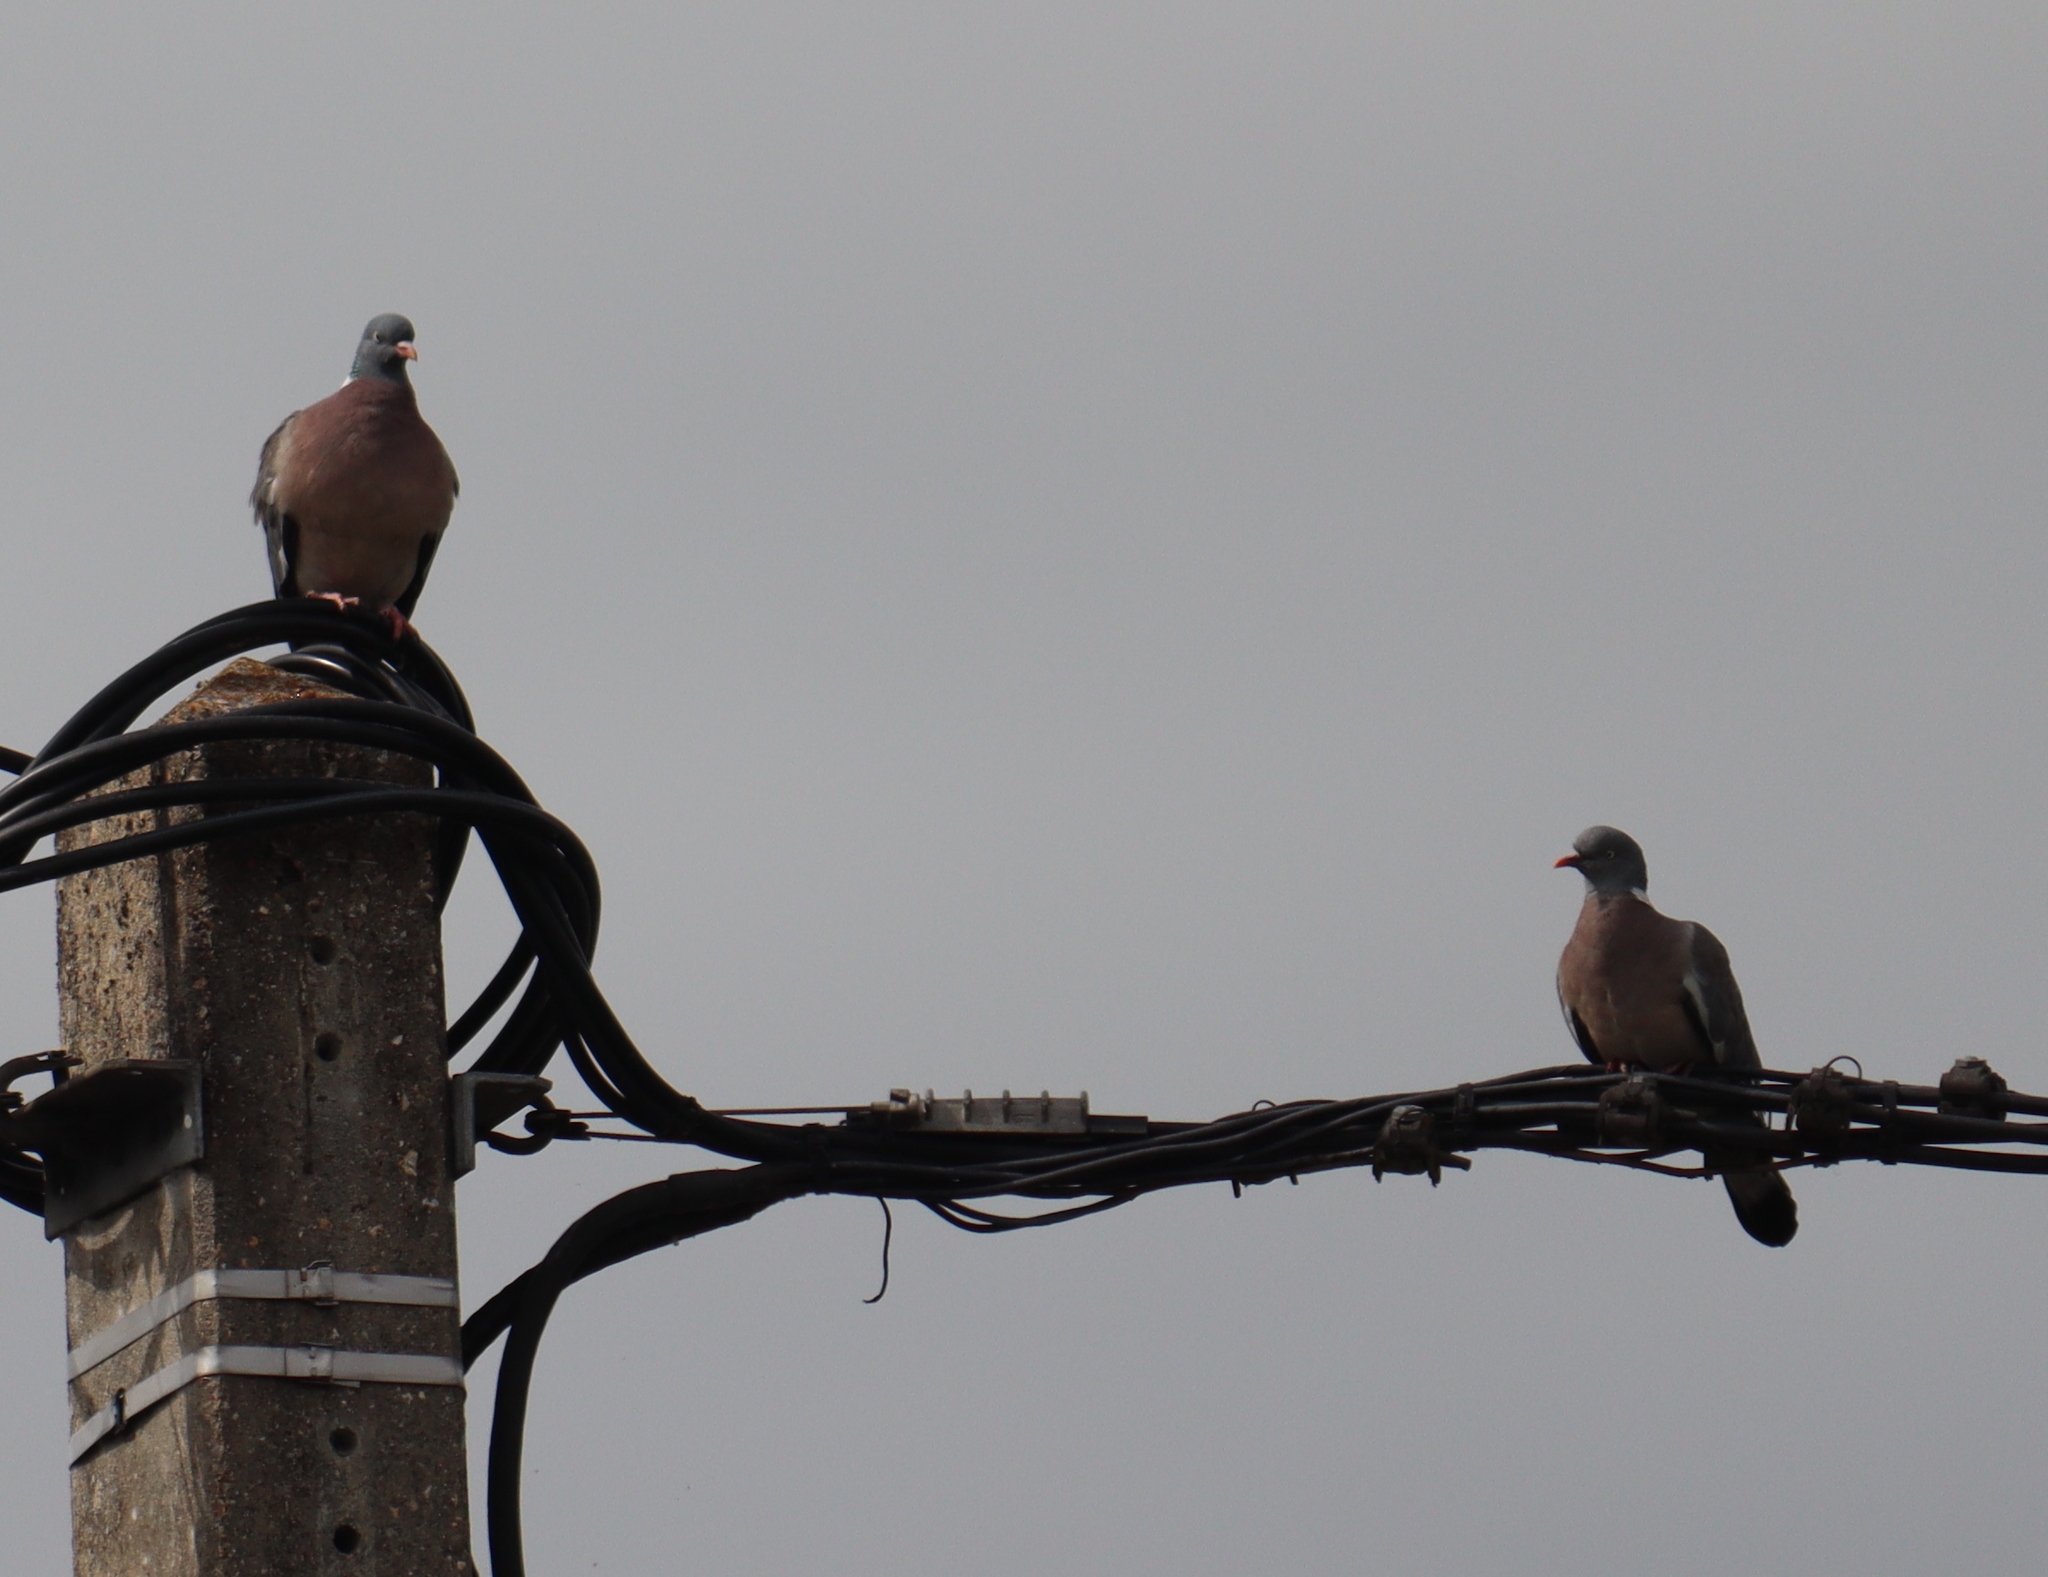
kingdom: Animalia
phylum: Chordata
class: Aves
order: Columbiformes
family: Columbidae
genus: Columba
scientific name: Columba palumbus
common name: Common wood pigeon
